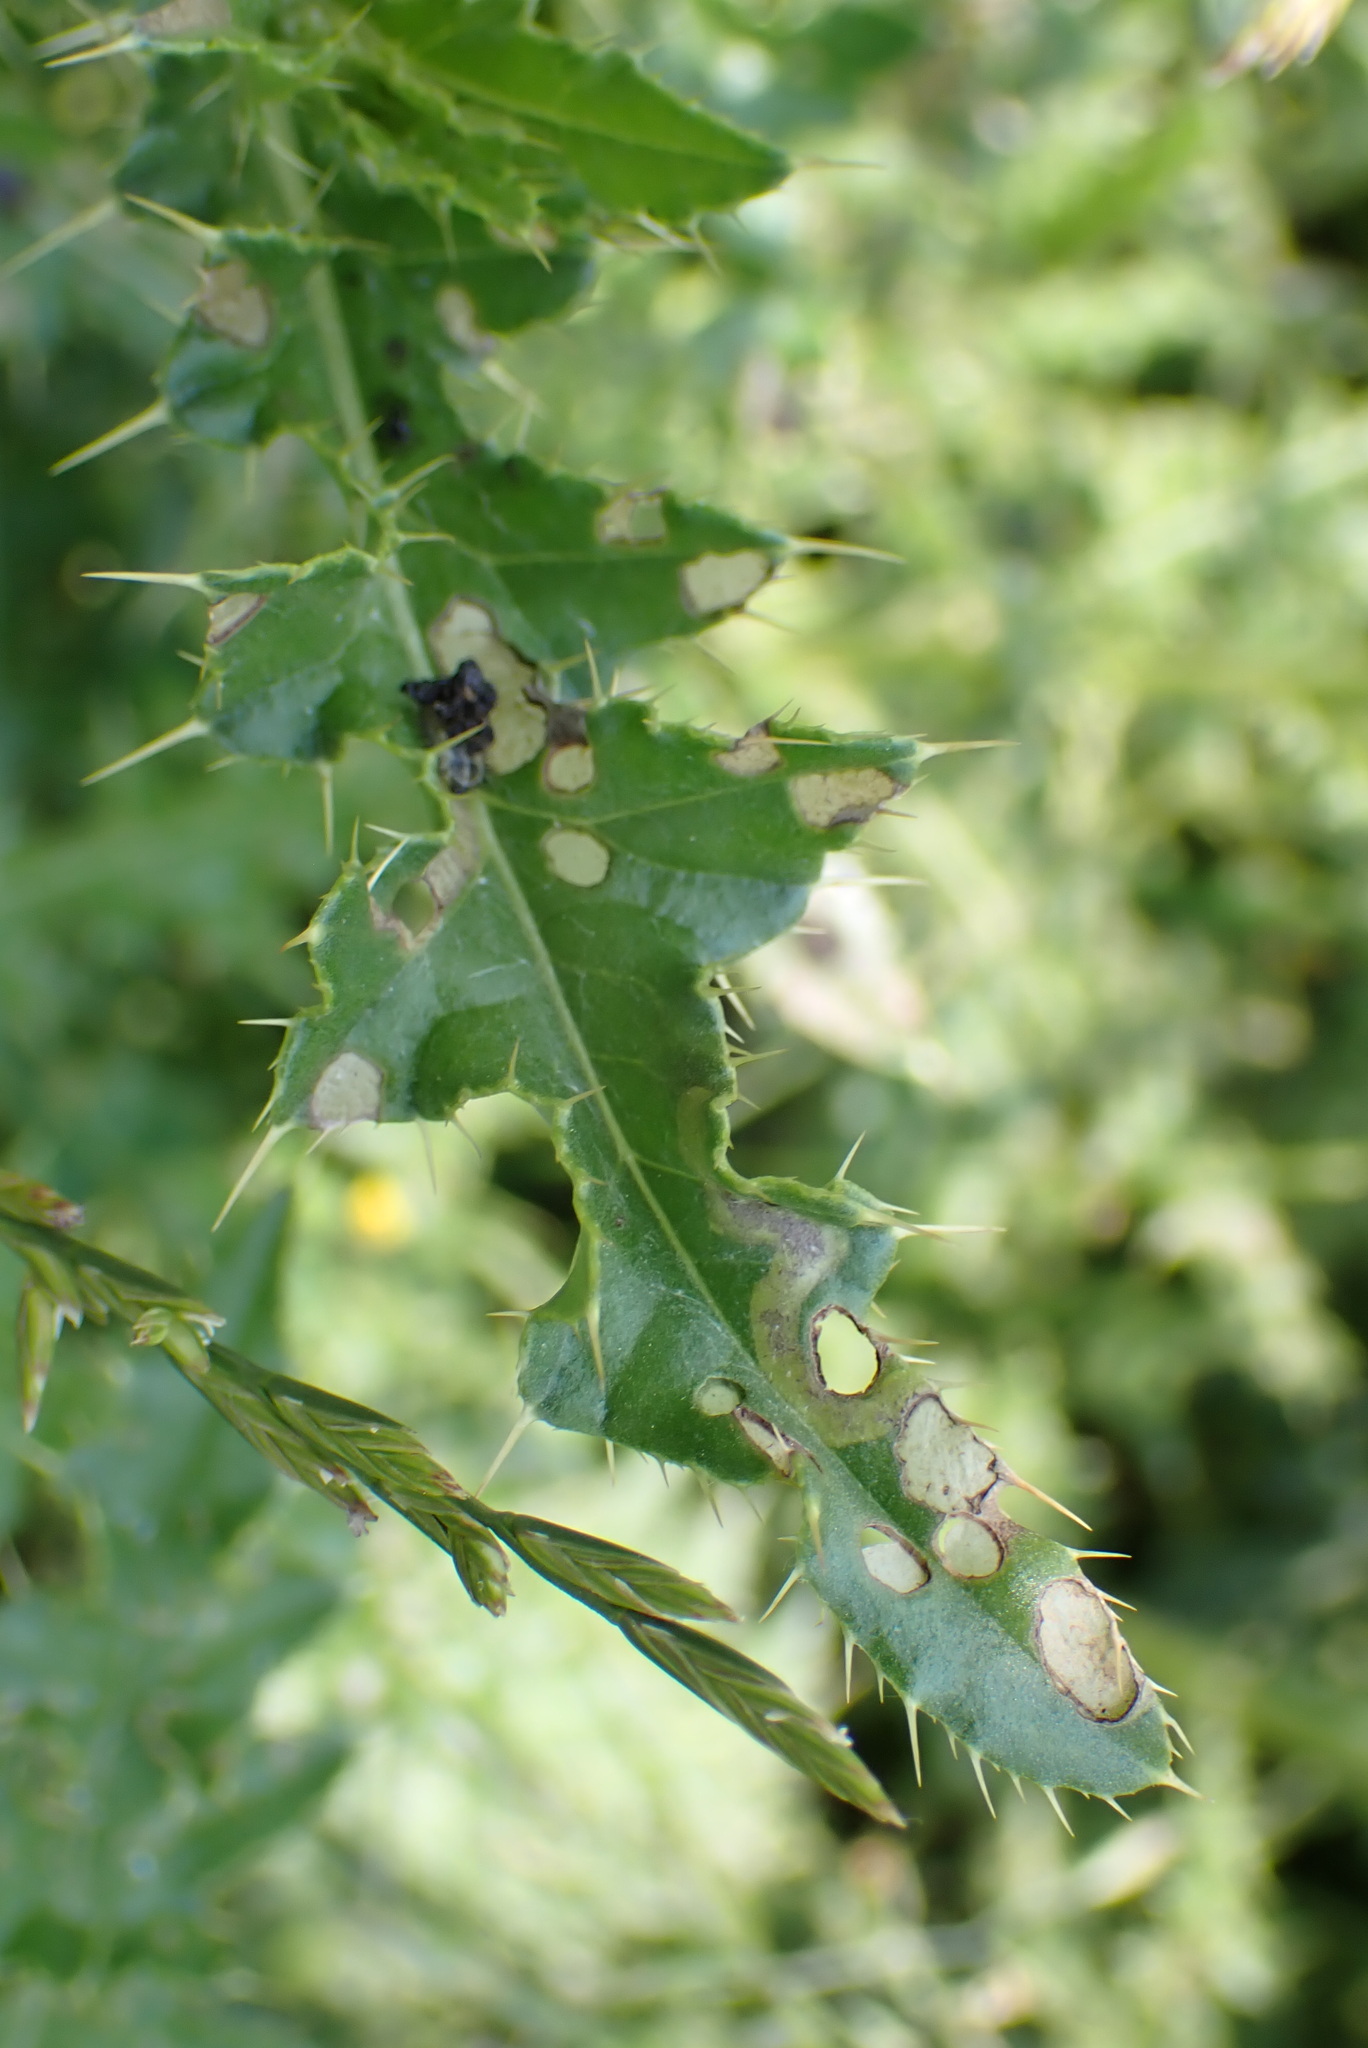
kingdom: Animalia
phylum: Arthropoda
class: Insecta
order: Diptera
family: Agromyzidae
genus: Phytomyza
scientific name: Phytomyza spinaciae
